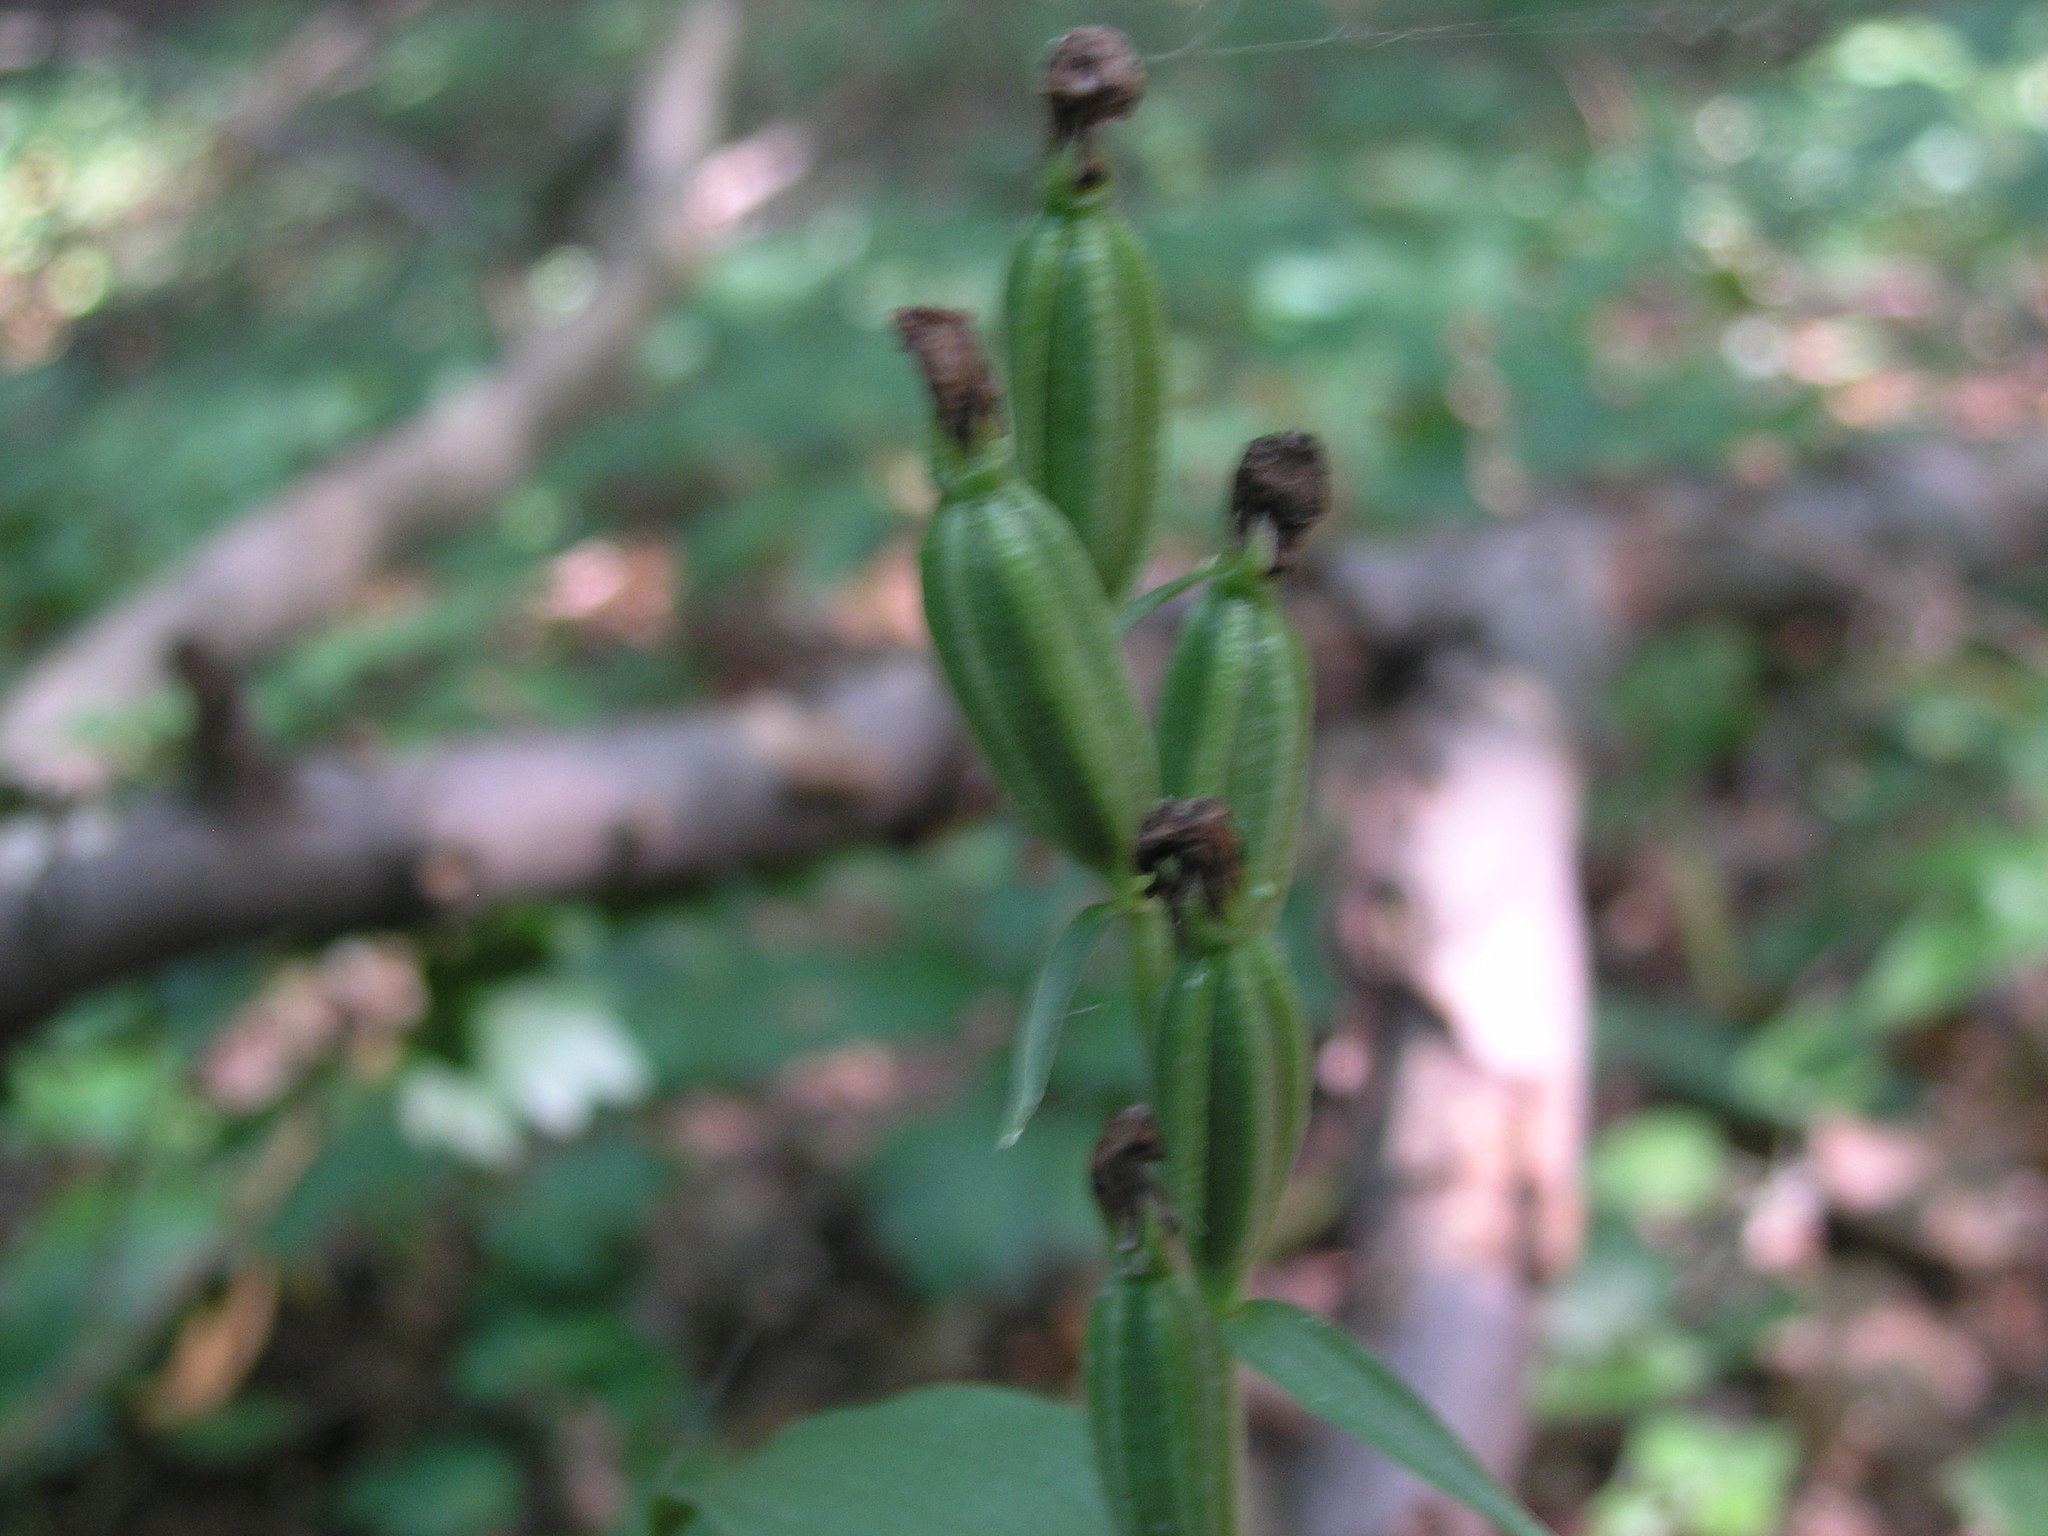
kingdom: Plantae
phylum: Tracheophyta
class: Liliopsida
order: Asparagales
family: Orchidaceae
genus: Cephalanthera
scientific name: Cephalanthera damasonium
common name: White helleborine
